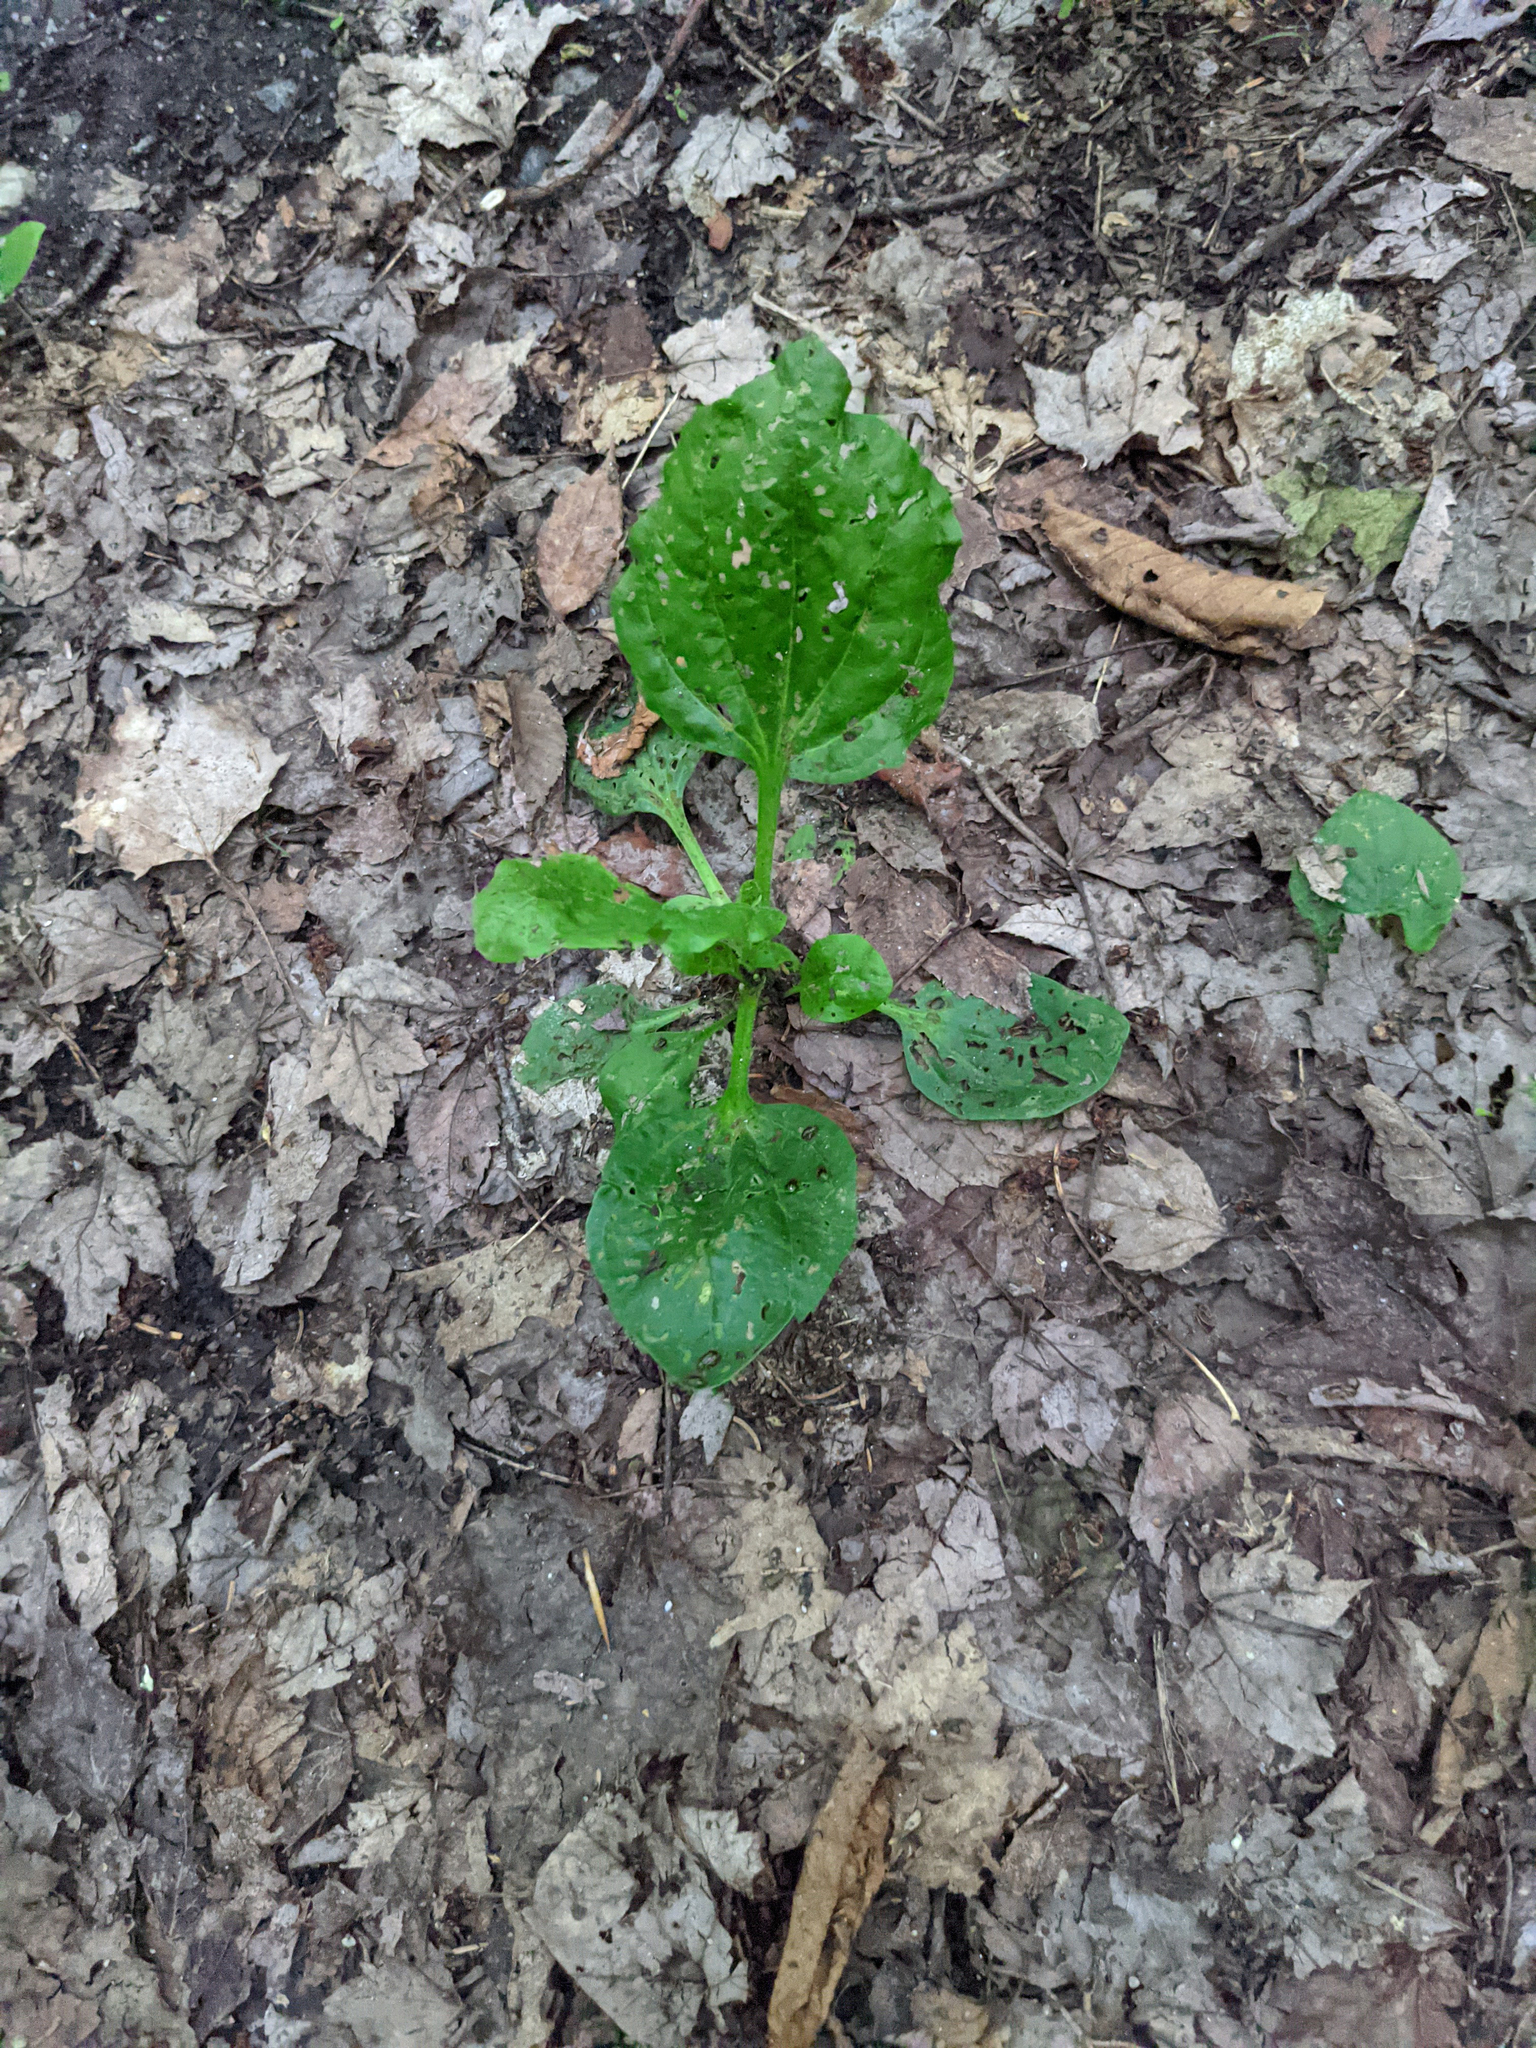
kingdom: Plantae
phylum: Tracheophyta
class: Magnoliopsida
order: Lamiales
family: Plantaginaceae
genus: Plantago
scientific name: Plantago major
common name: Common plantain
